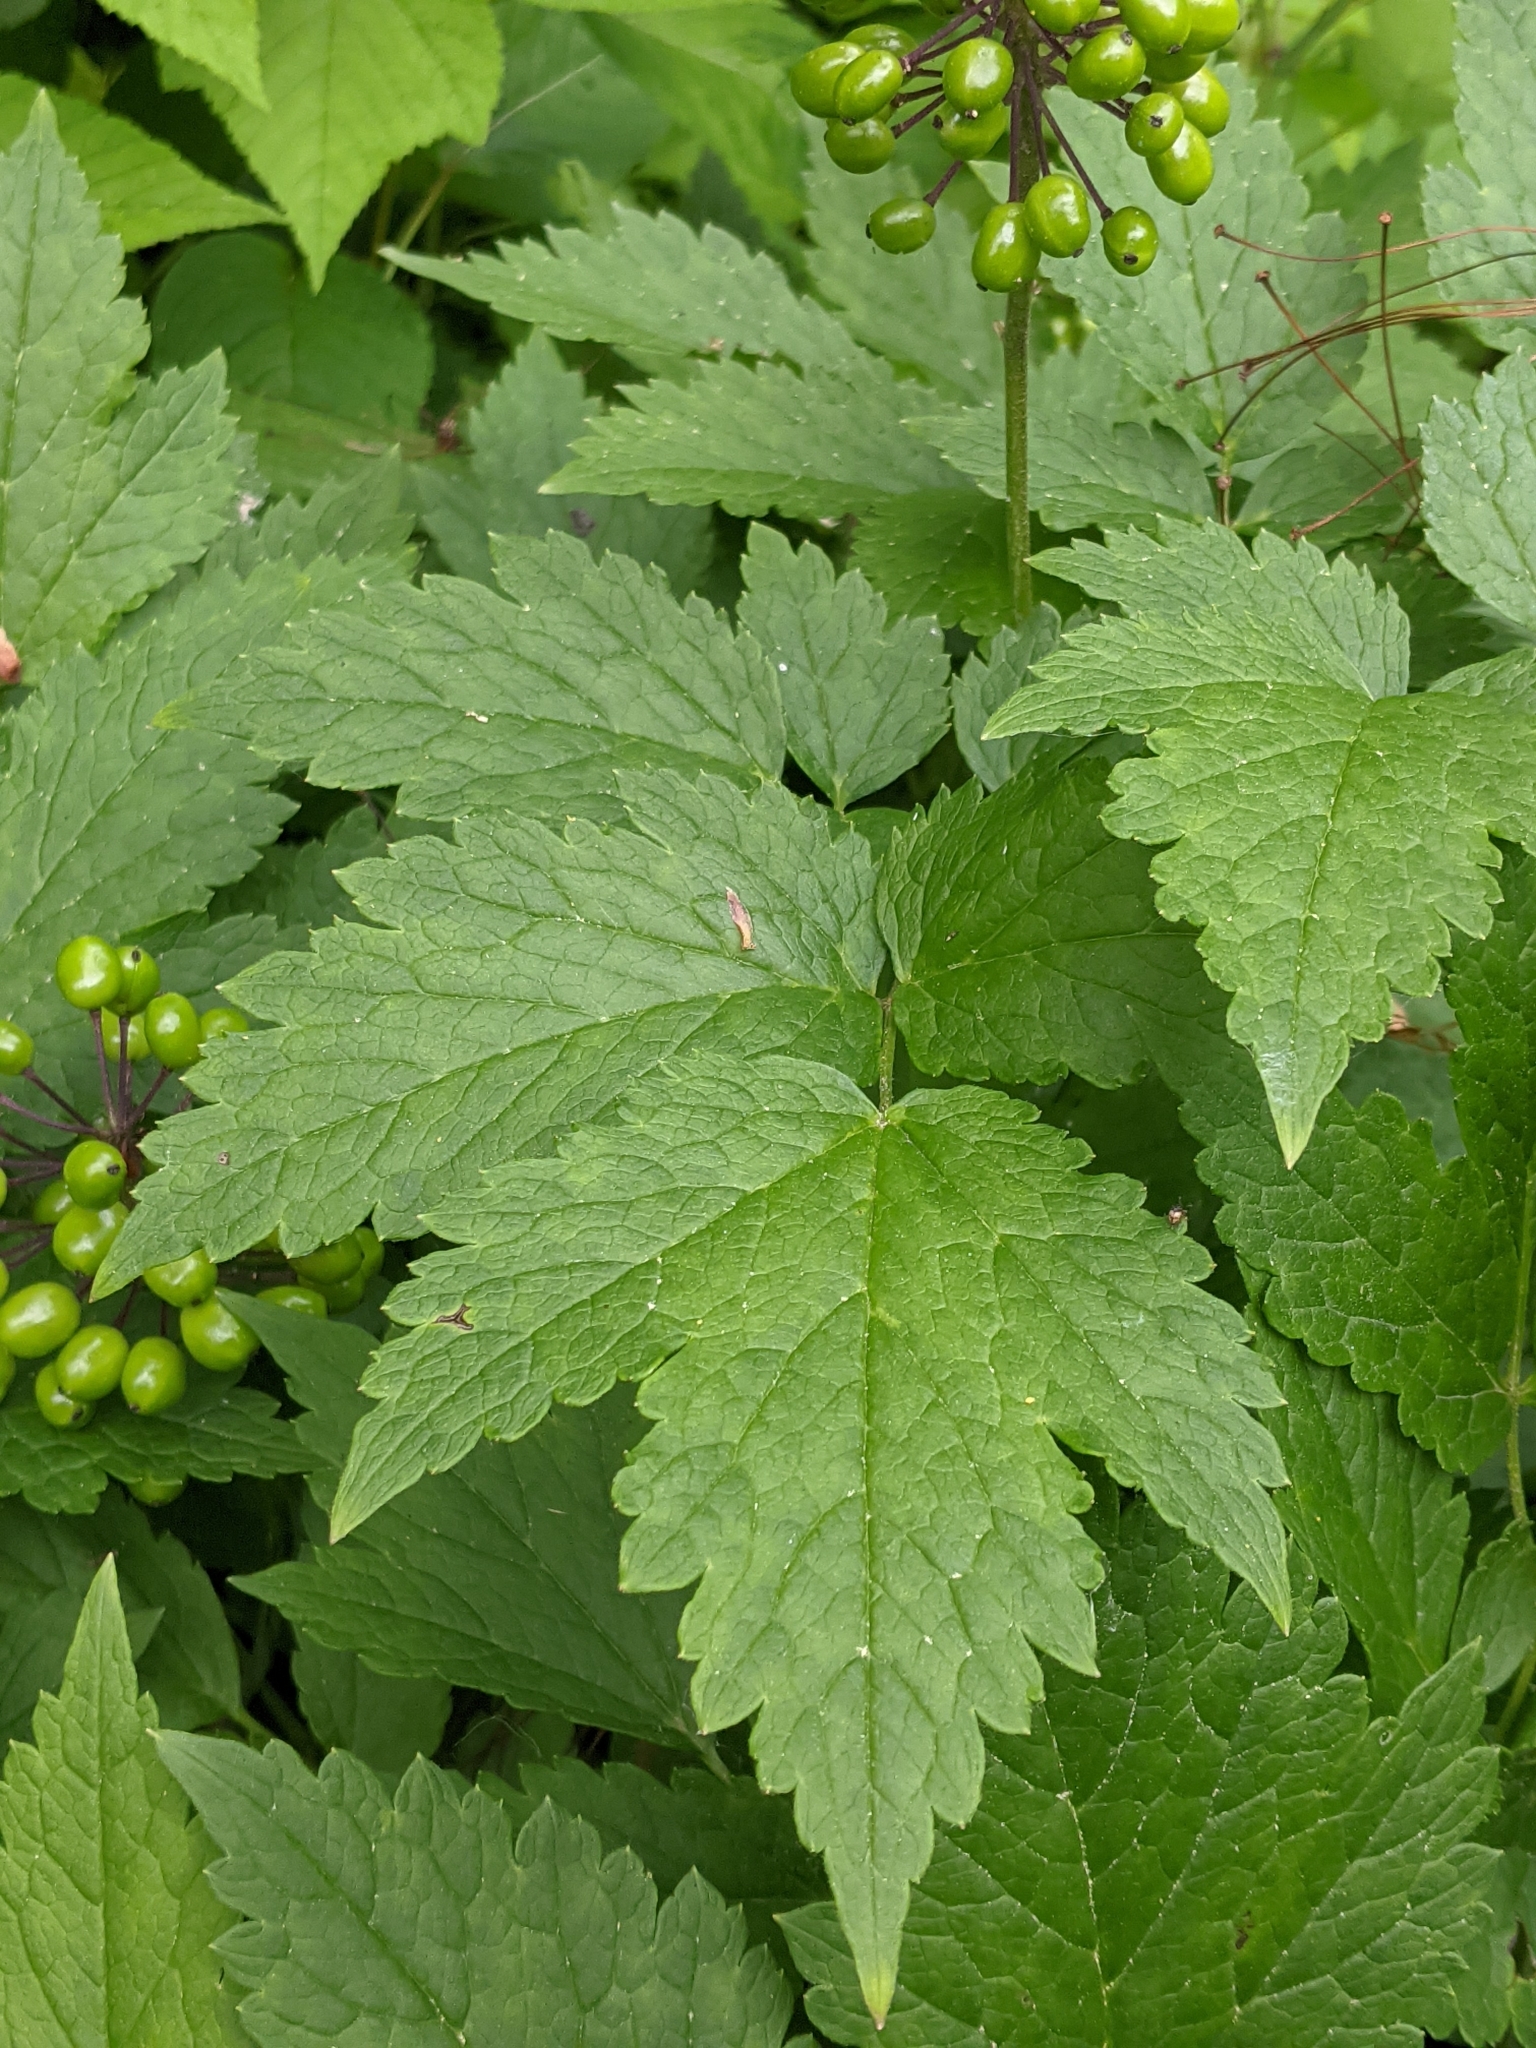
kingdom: Plantae
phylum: Tracheophyta
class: Magnoliopsida
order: Ranunculales
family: Ranunculaceae
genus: Actaea
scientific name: Actaea rubra
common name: Red baneberry
